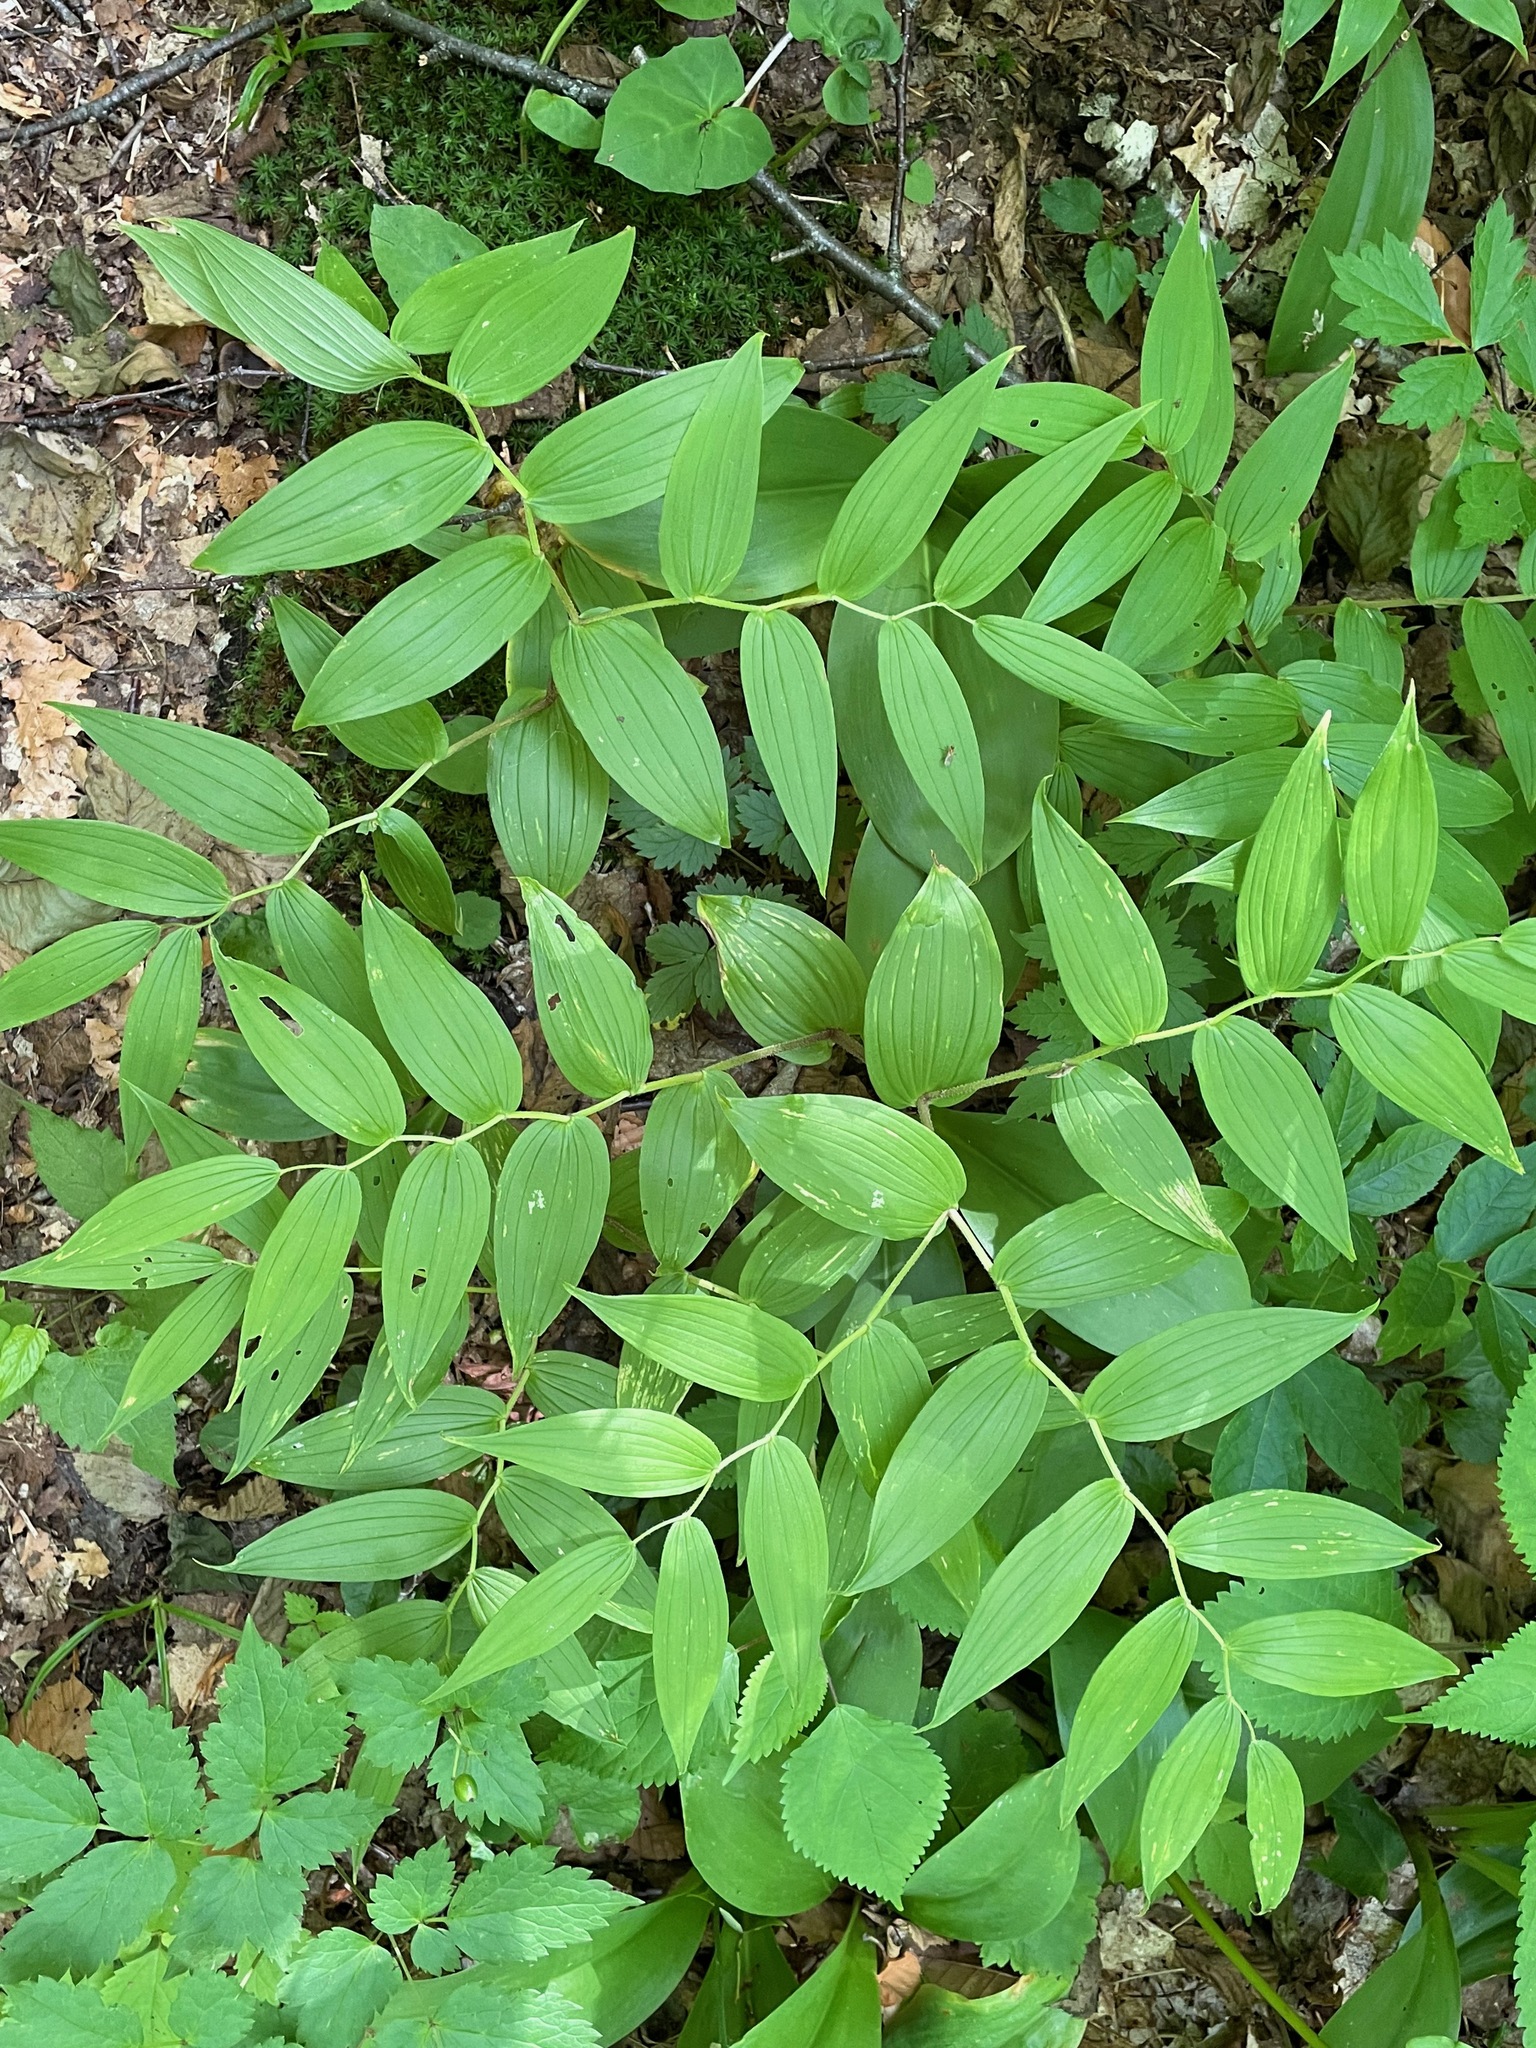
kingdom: Plantae
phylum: Tracheophyta
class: Liliopsida
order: Liliales
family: Liliaceae
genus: Streptopus
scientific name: Streptopus lanceolatus
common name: Rose mandarin
